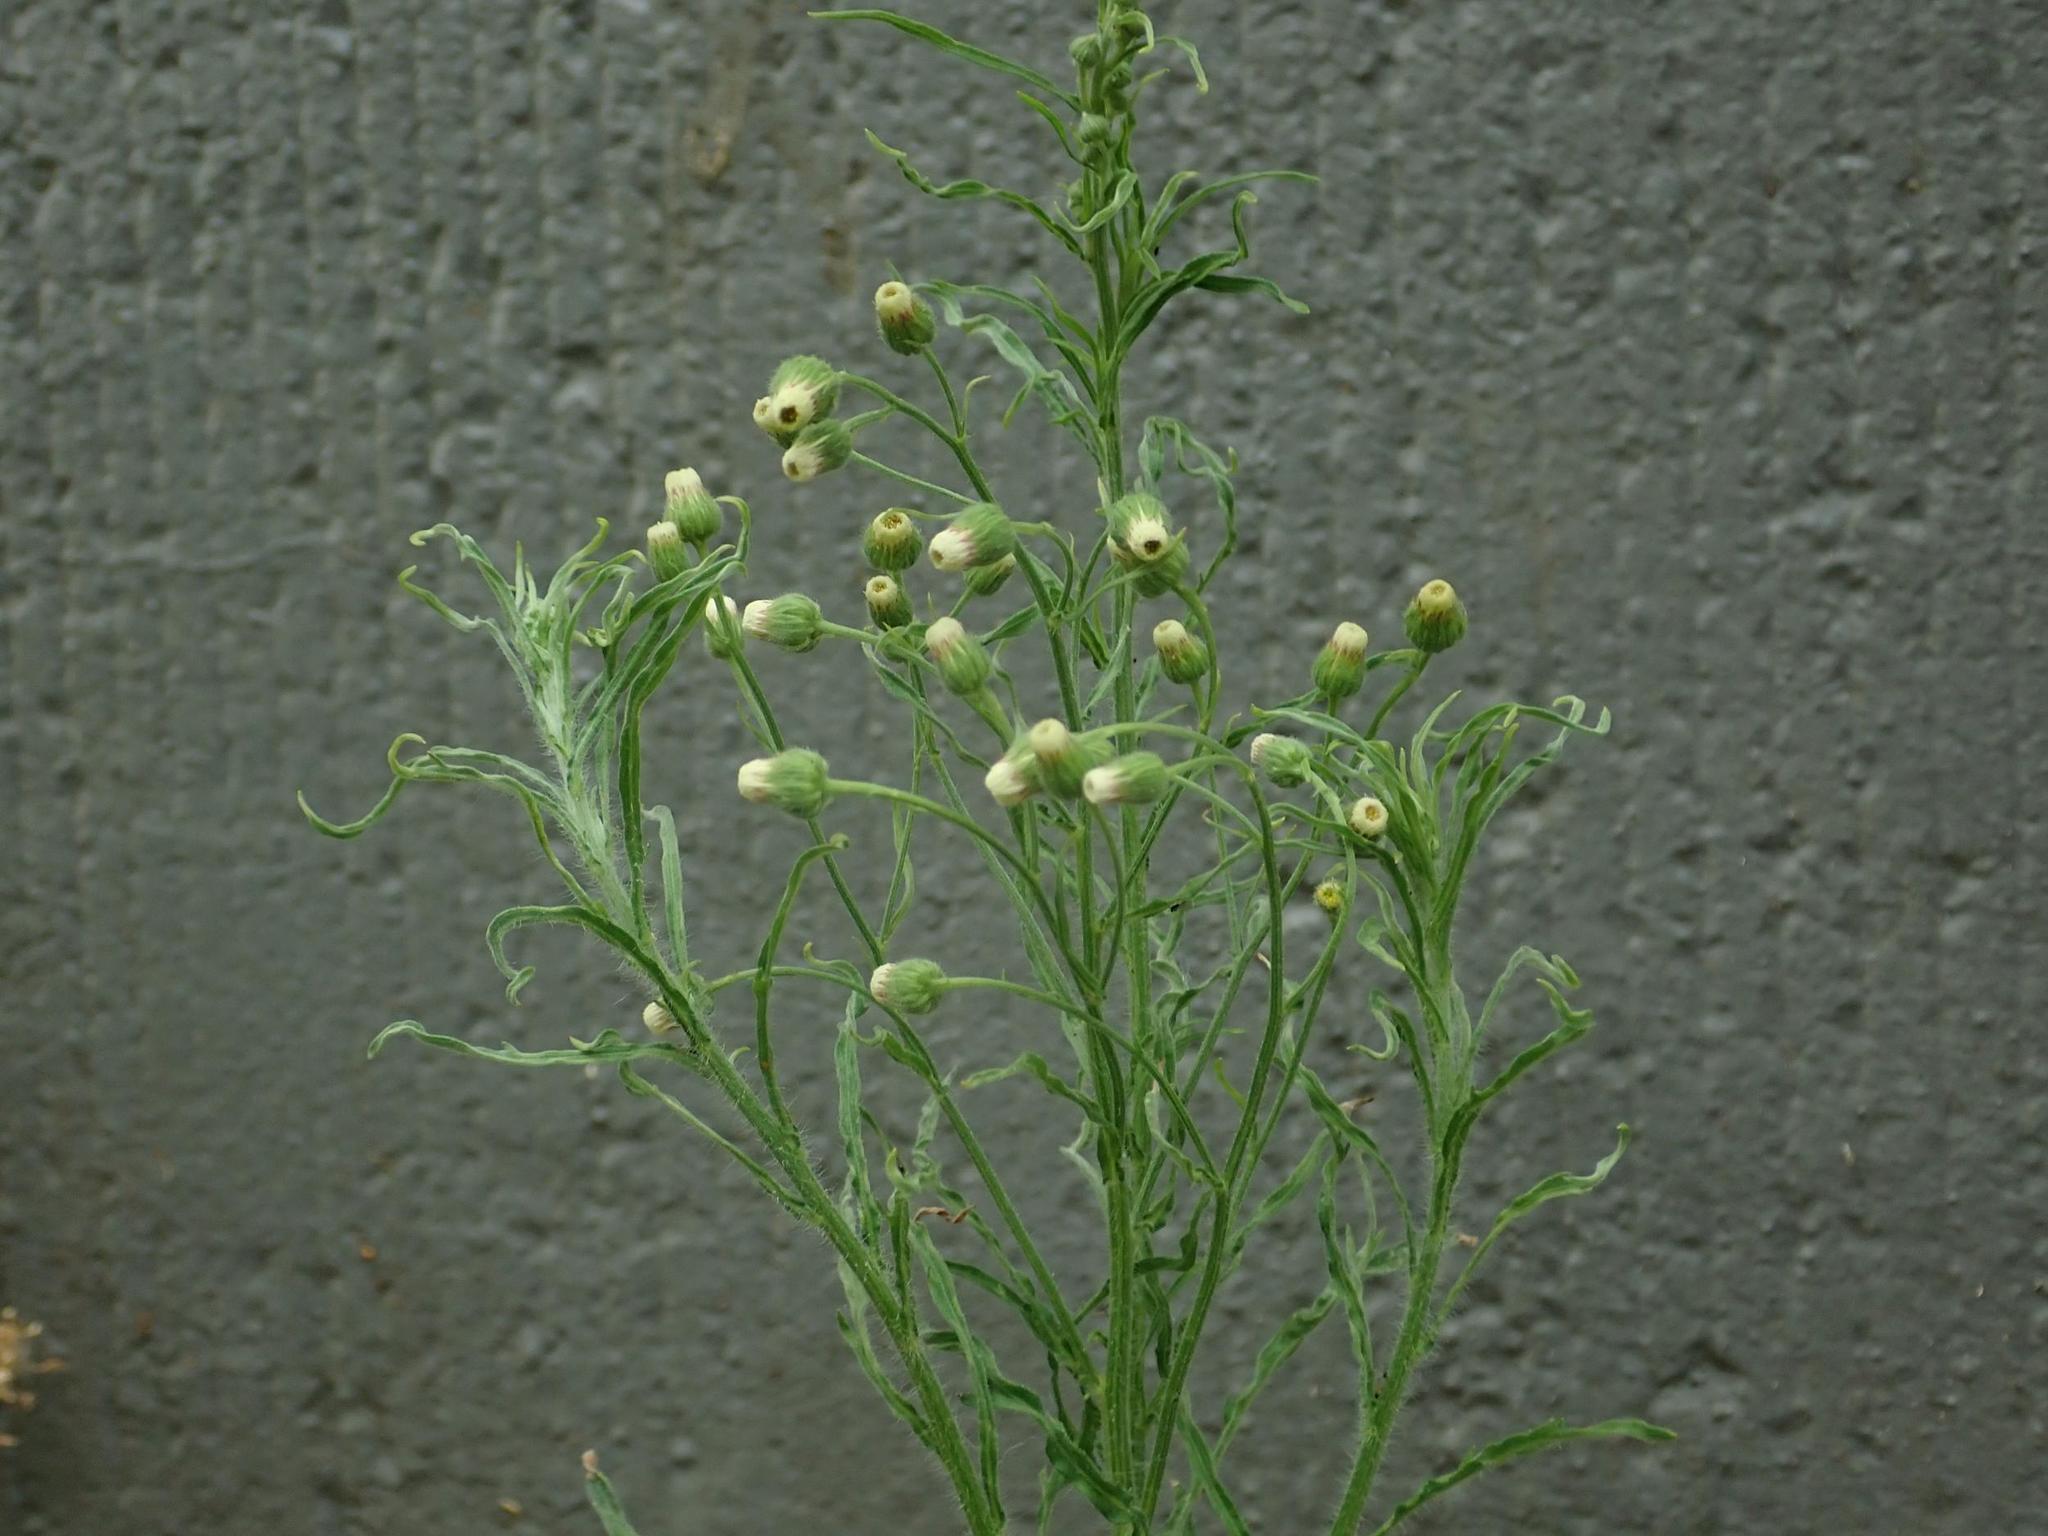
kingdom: Plantae
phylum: Tracheophyta
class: Magnoliopsida
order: Asterales
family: Asteraceae
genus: Erigeron
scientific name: Erigeron bonariensis
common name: Argentine fleabane
